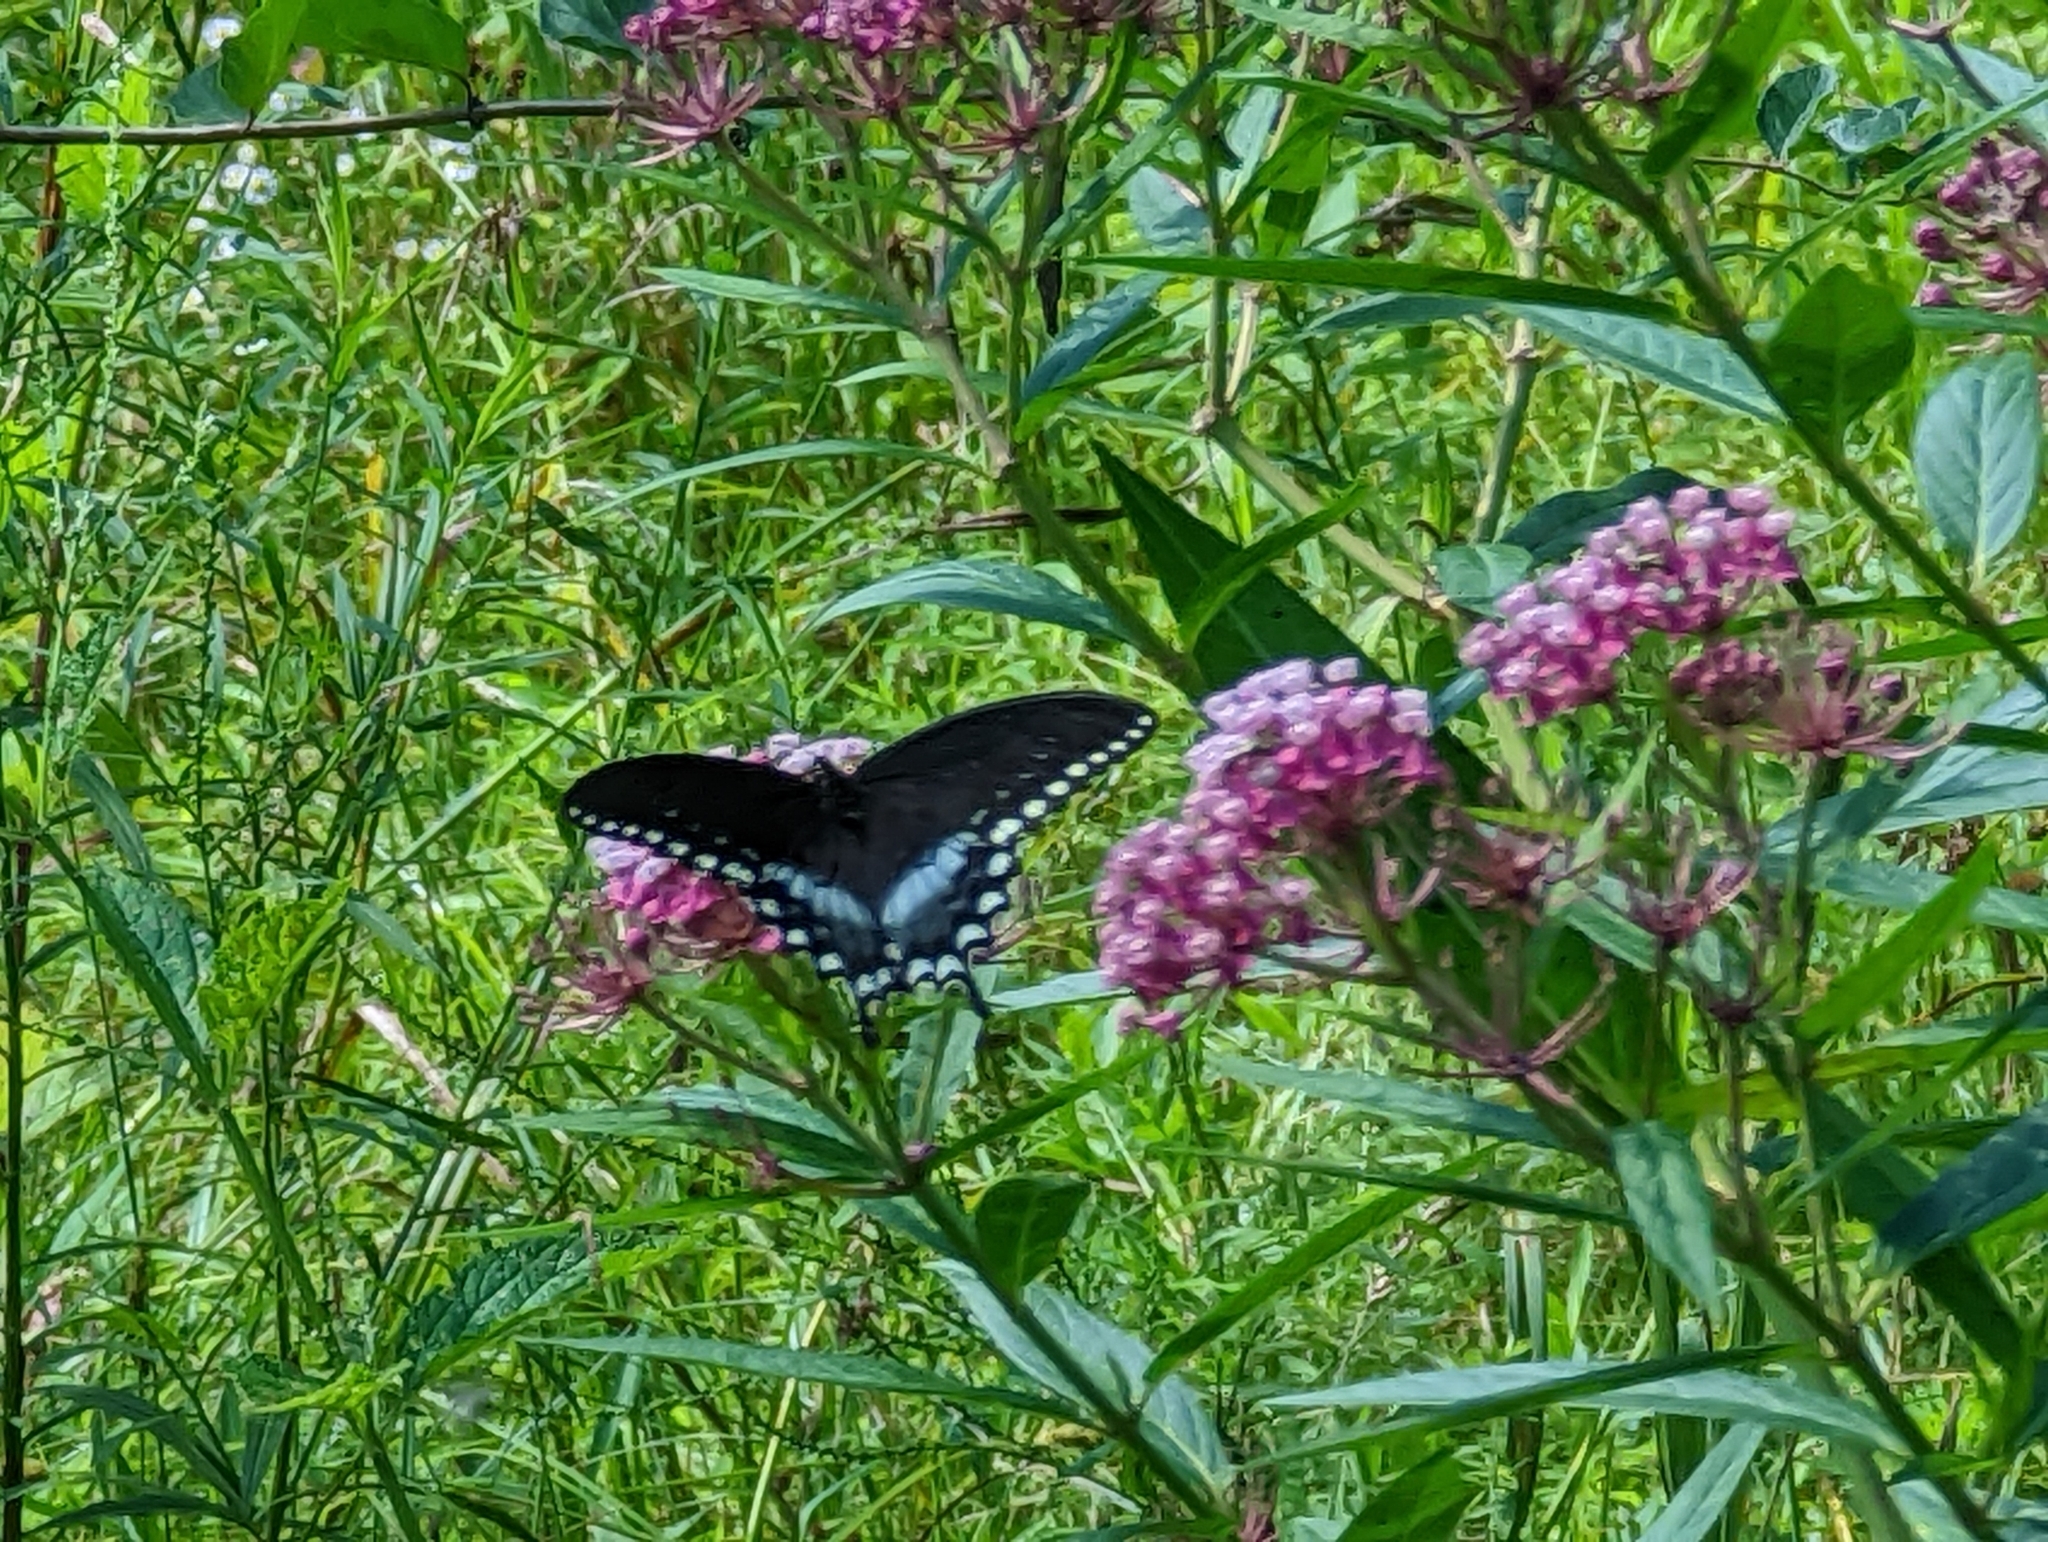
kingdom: Animalia
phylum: Arthropoda
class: Insecta
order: Lepidoptera
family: Papilionidae
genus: Papilio
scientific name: Papilio troilus
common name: Spicebush swallowtail
